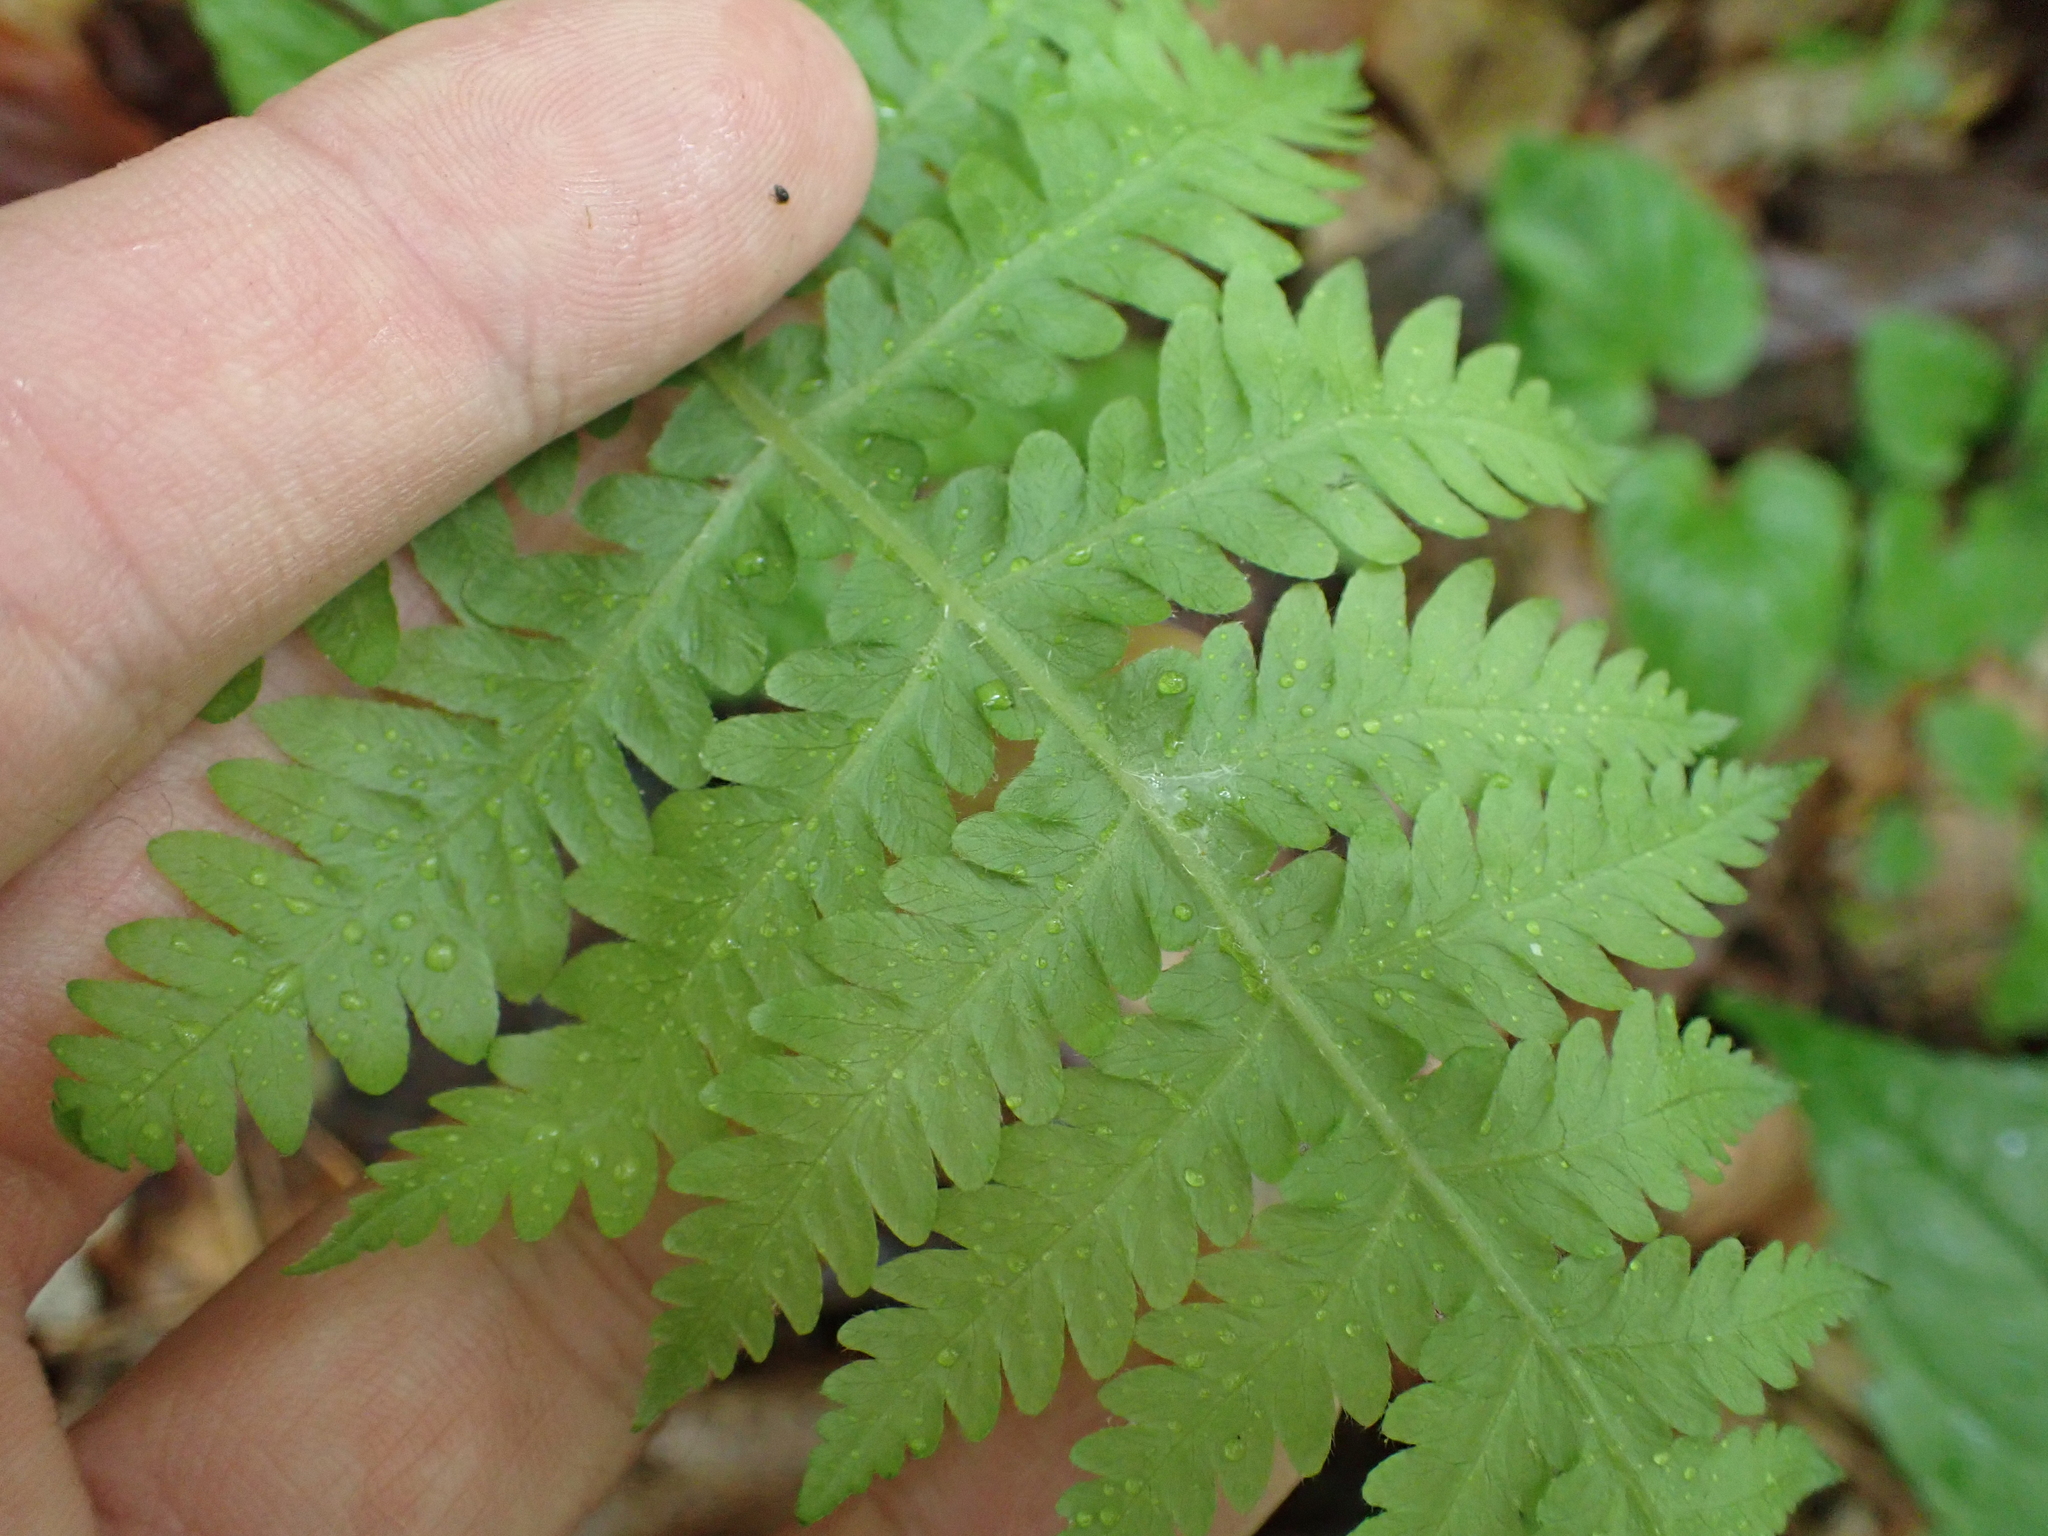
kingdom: Plantae
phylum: Tracheophyta
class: Polypodiopsida
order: Polypodiales
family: Thelypteridaceae
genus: Phegopteris
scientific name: Phegopteris hexagonoptera
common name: Broad beech fern
